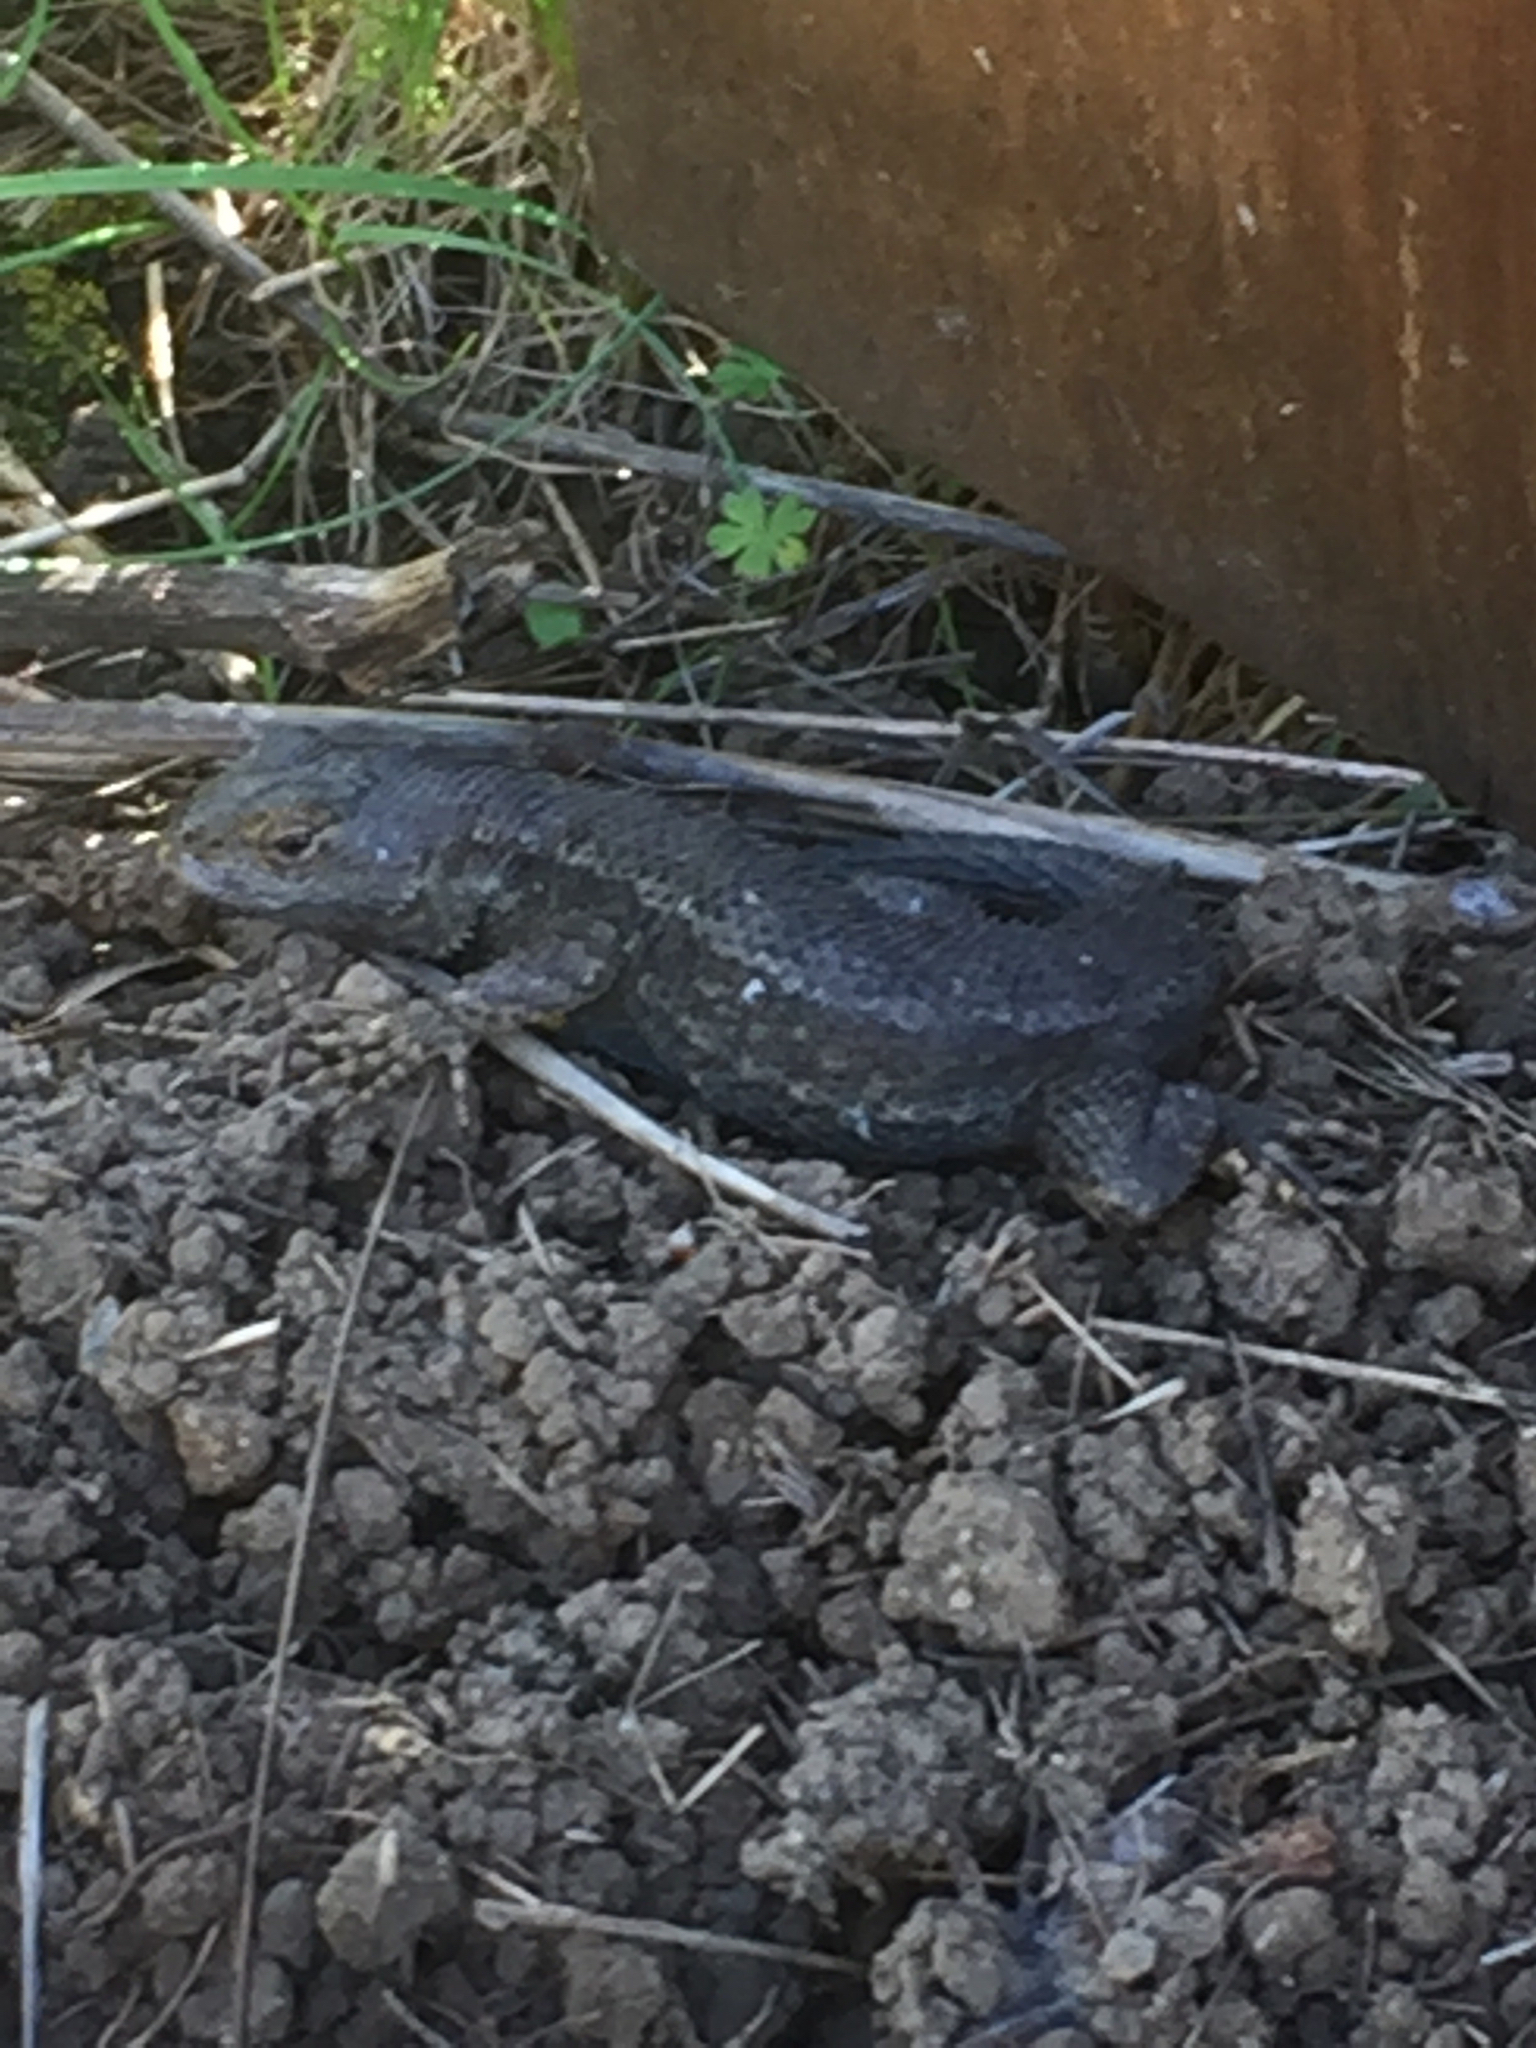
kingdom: Animalia
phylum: Chordata
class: Squamata
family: Phrynosomatidae
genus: Sceloporus
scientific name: Sceloporus occidentalis
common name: Western fence lizard
